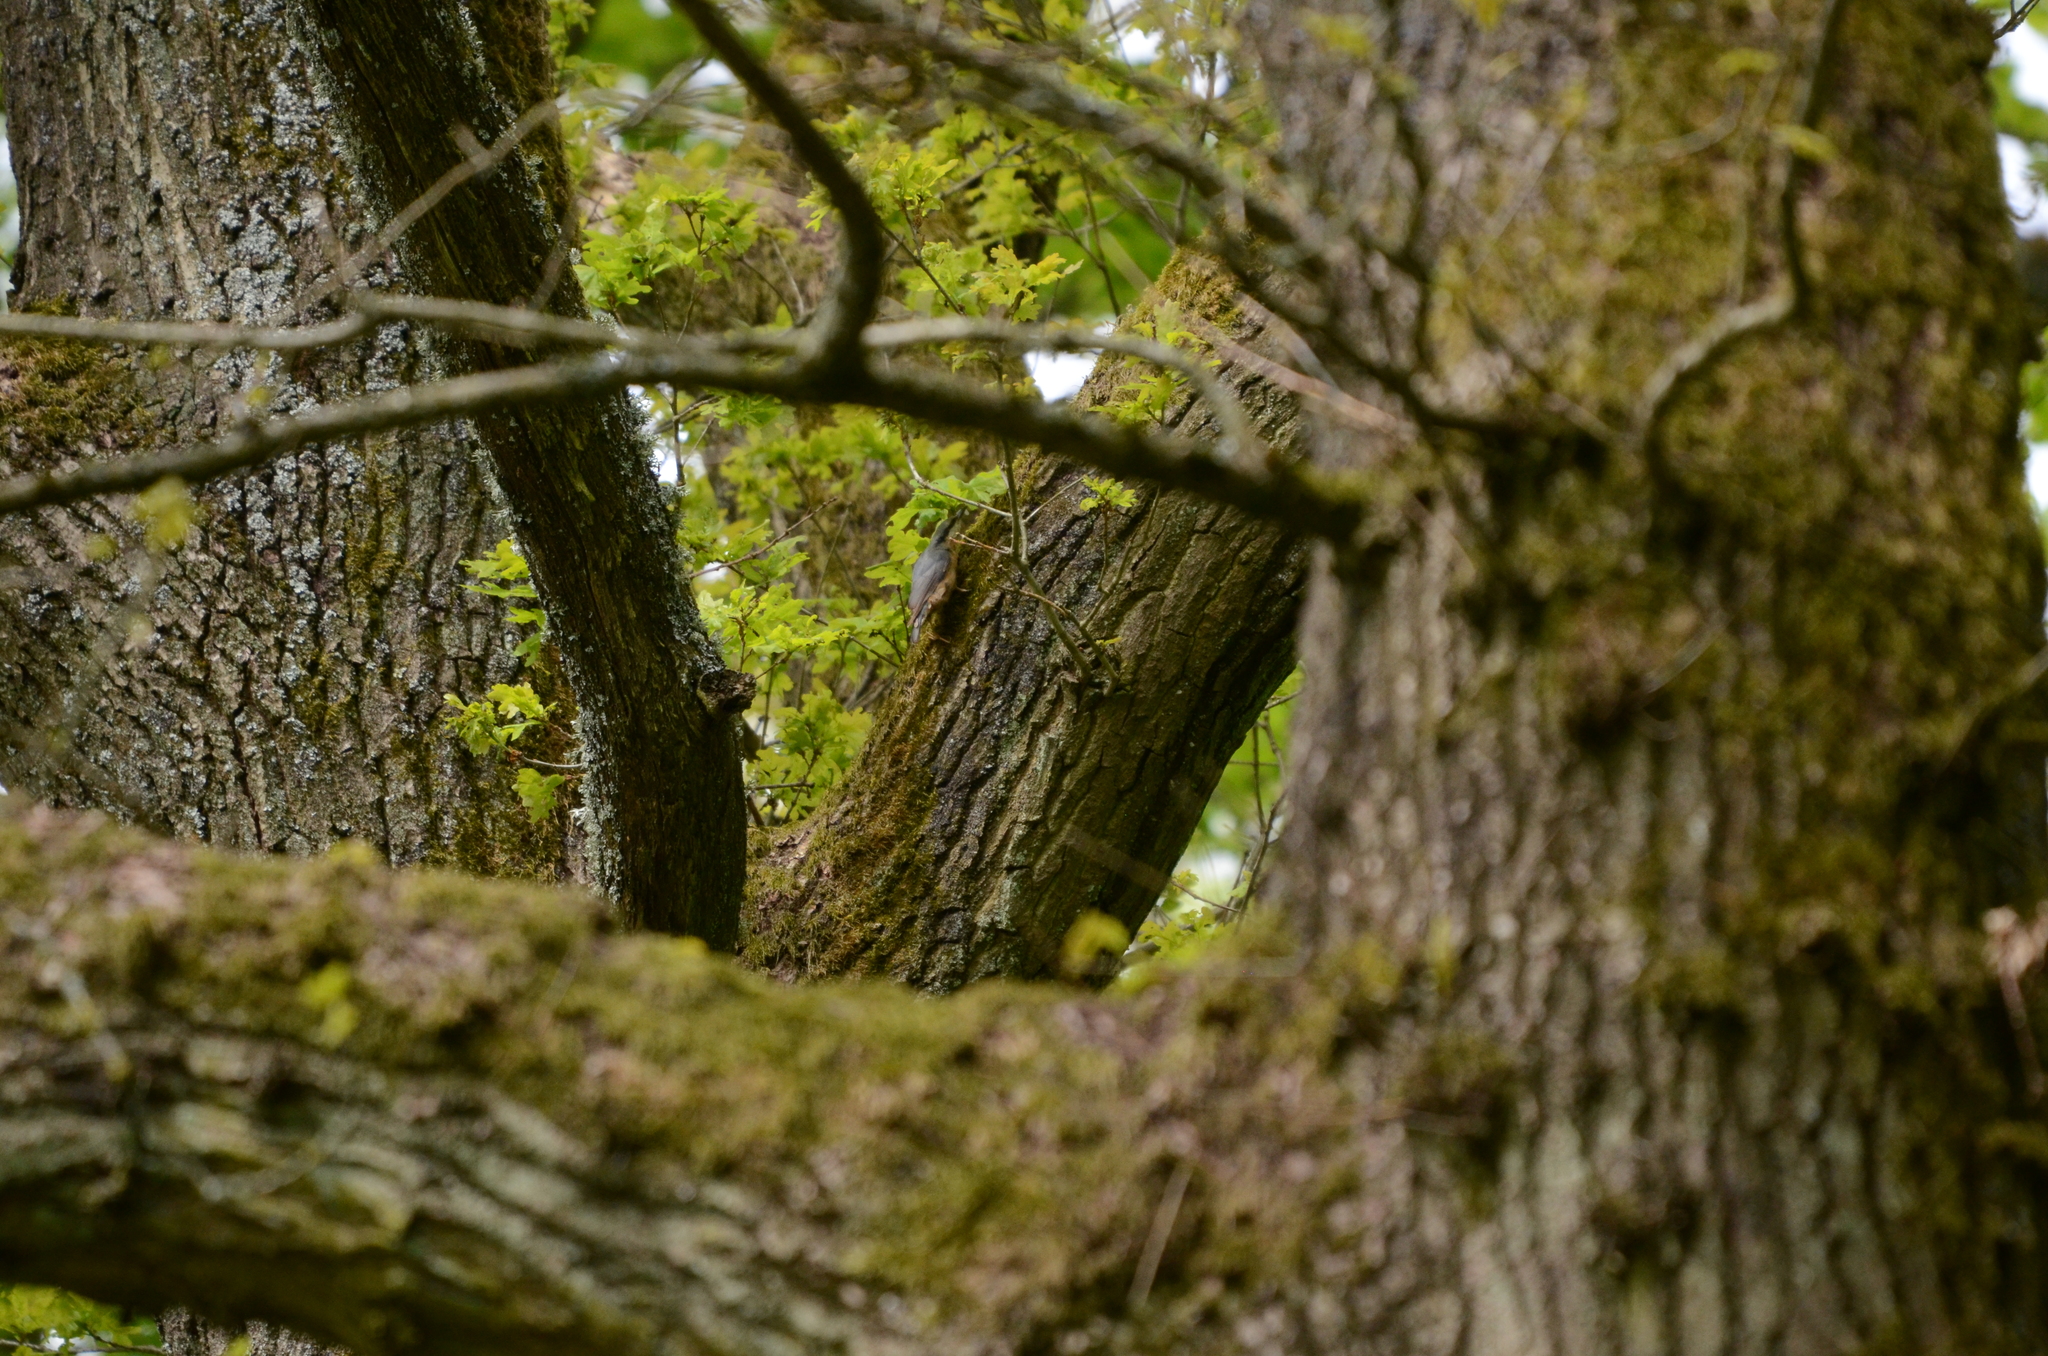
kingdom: Animalia
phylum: Chordata
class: Aves
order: Passeriformes
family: Sittidae
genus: Sitta
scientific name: Sitta europaea
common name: Eurasian nuthatch
